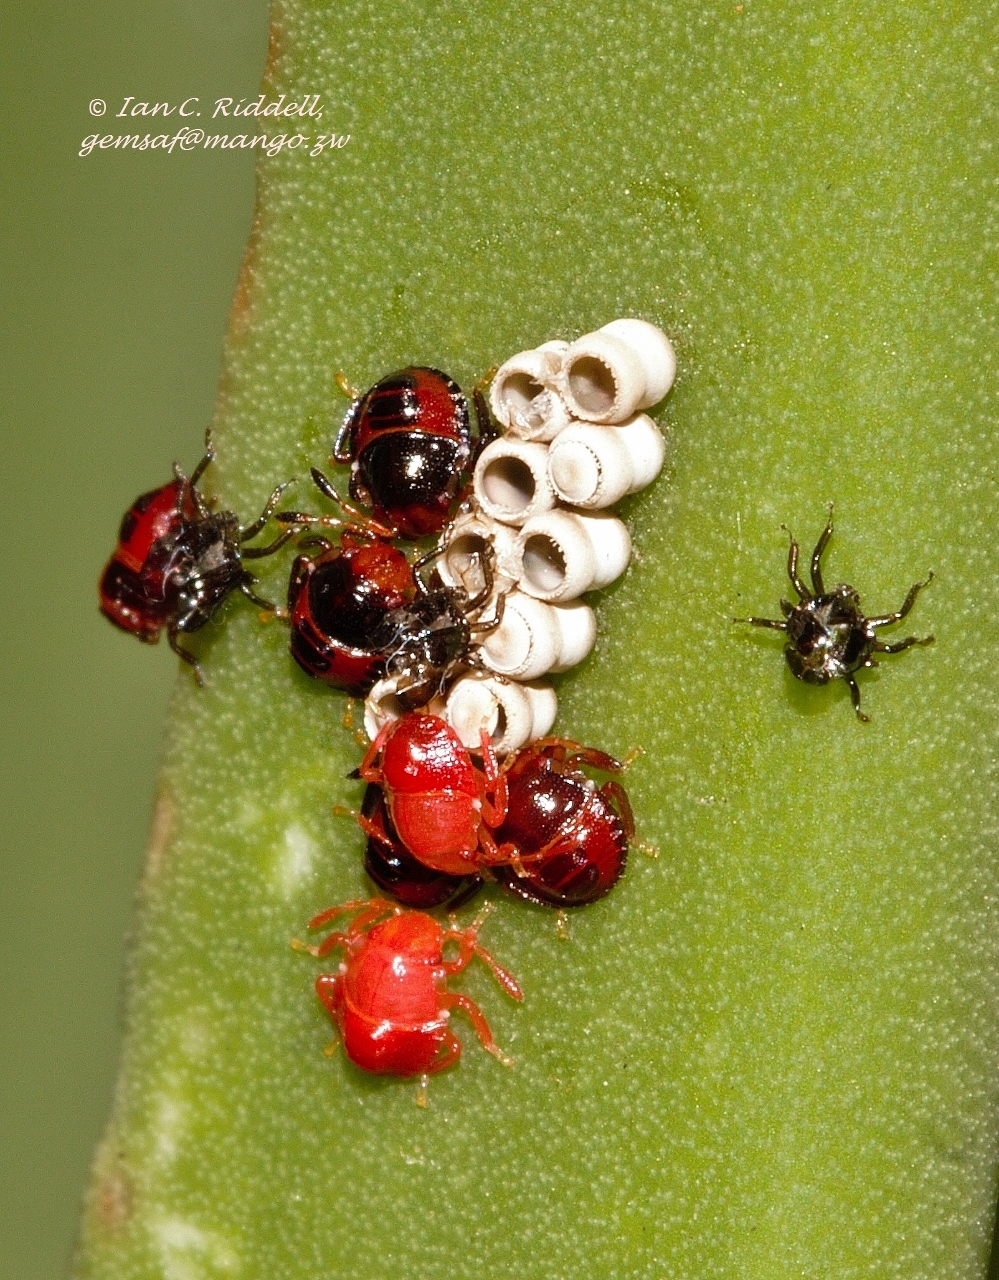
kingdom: Animalia
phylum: Arthropoda
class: Insecta
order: Hemiptera
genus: Flaminia
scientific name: Flaminia
